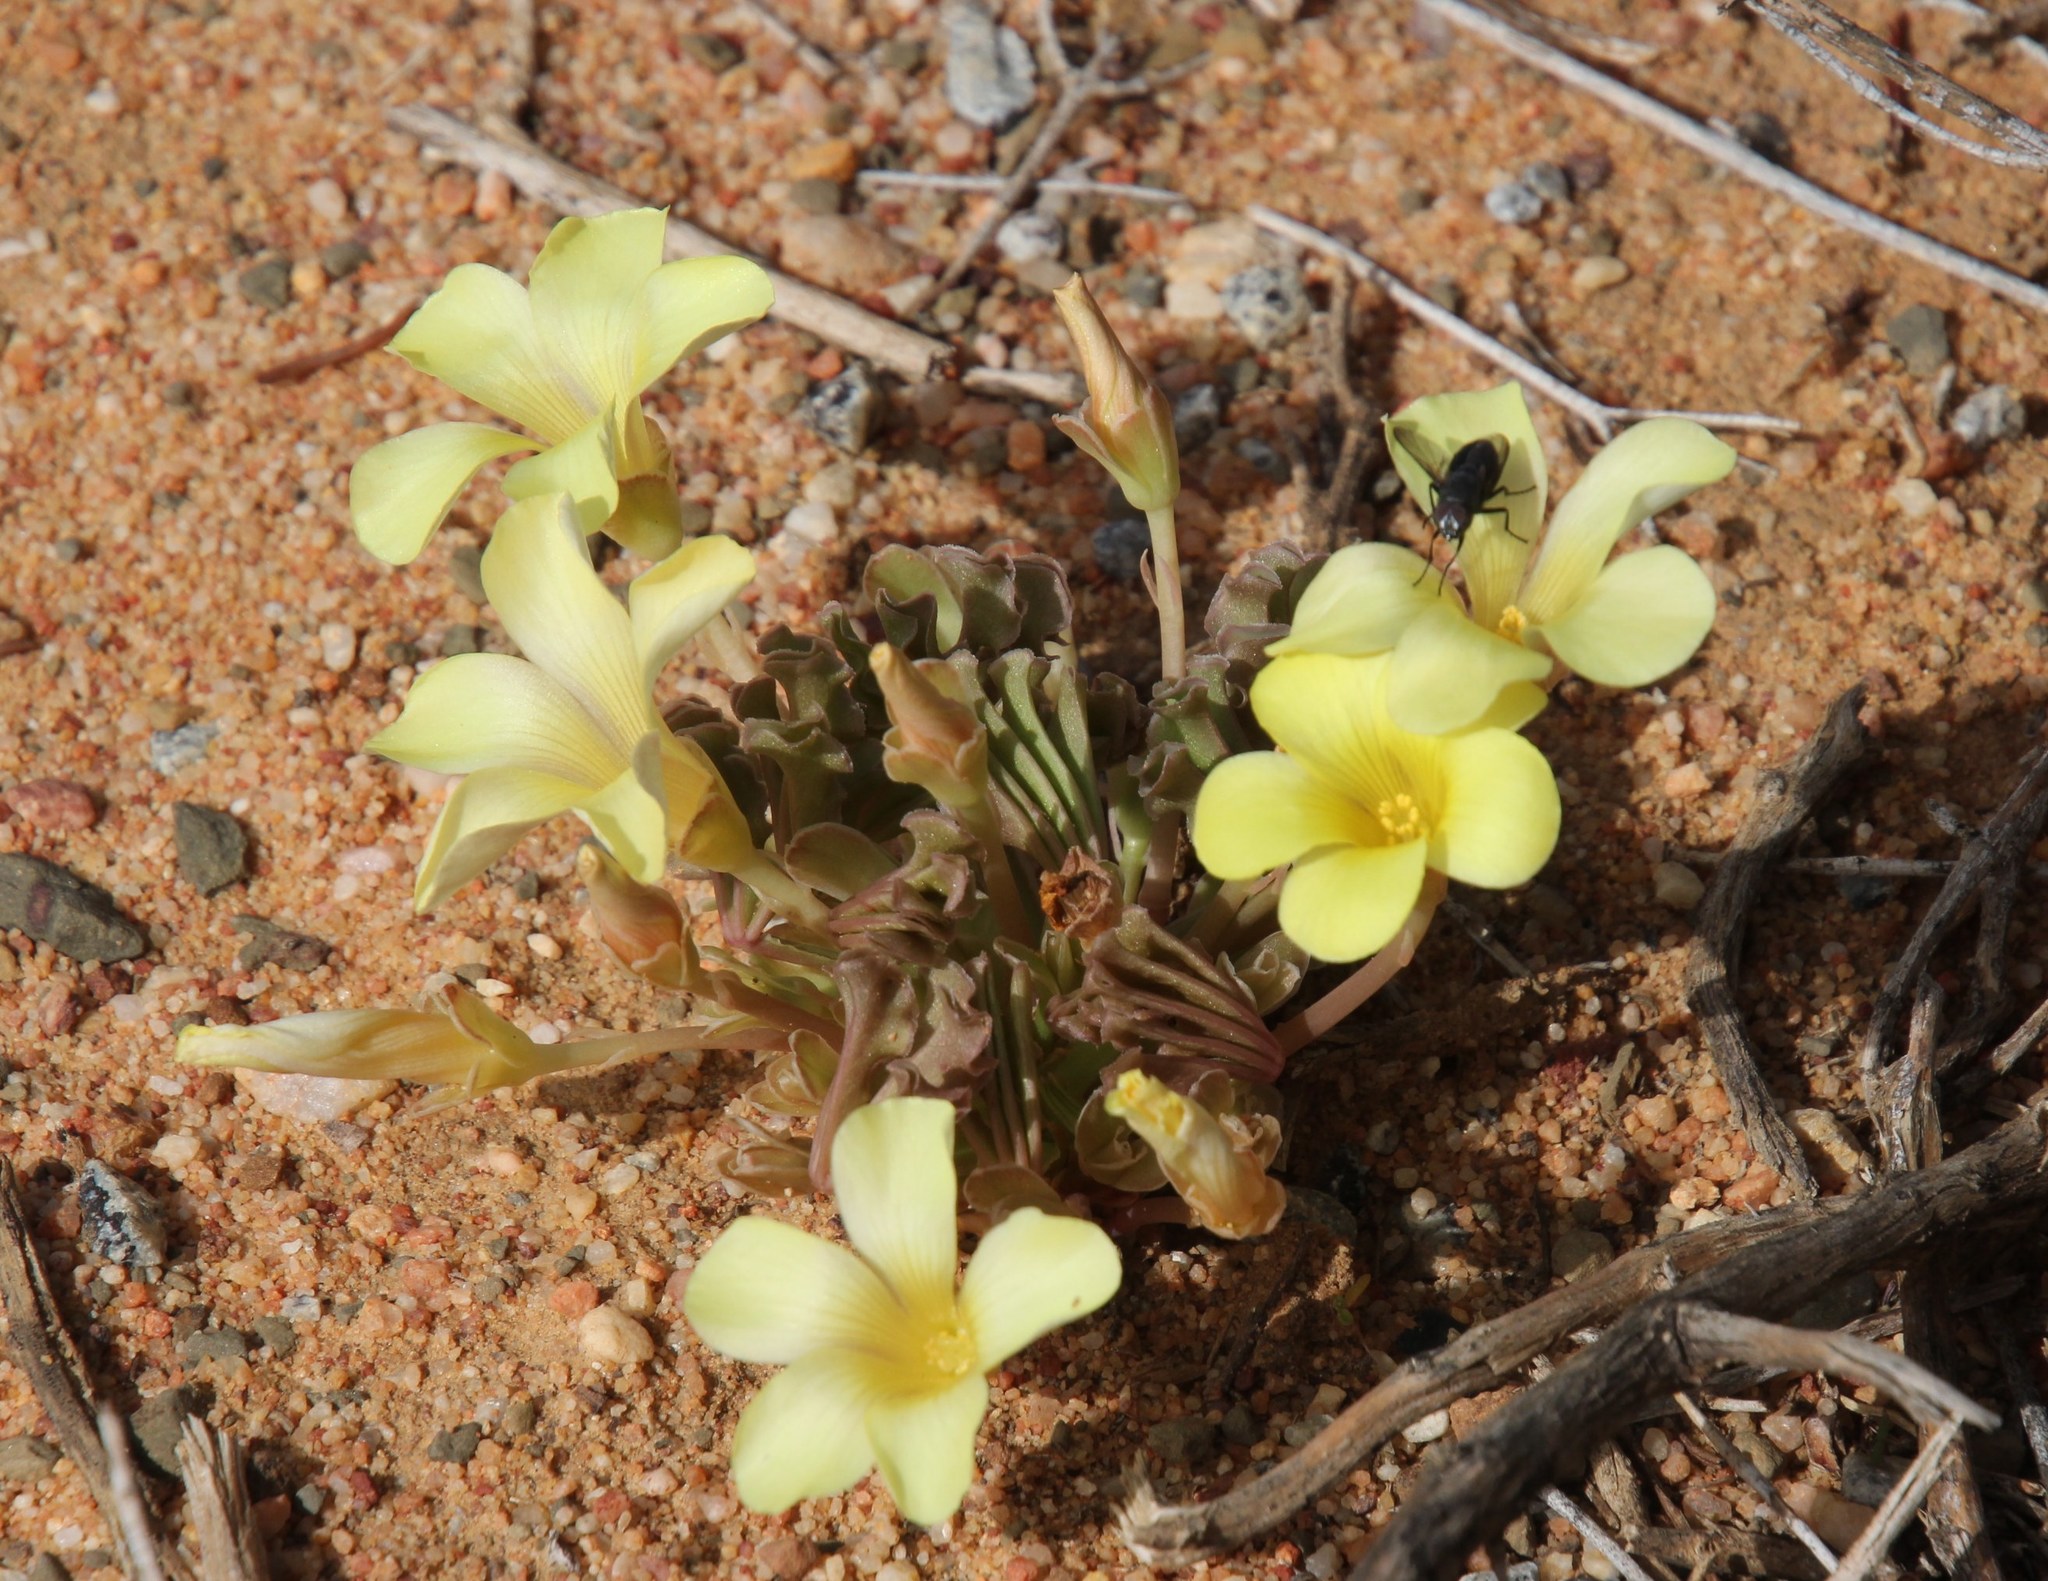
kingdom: Plantae
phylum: Tracheophyta
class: Magnoliopsida
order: Oxalidales
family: Oxalidaceae
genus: Oxalis
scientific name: Oxalis flava
